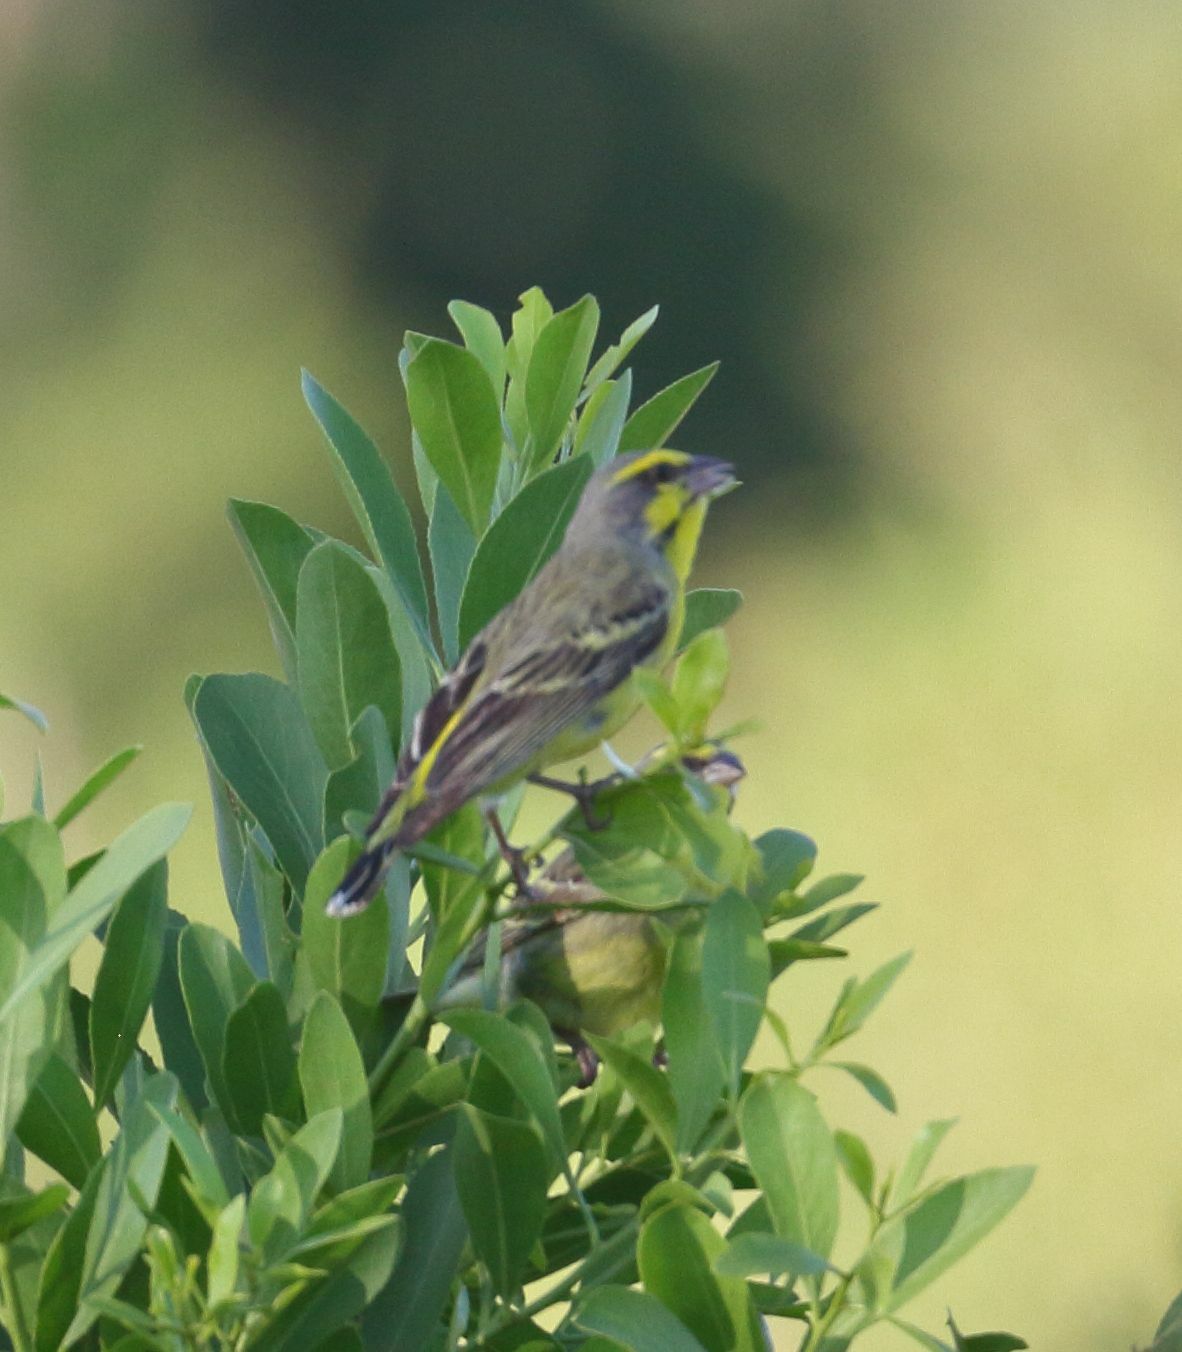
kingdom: Animalia
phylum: Chordata
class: Aves
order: Passeriformes
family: Fringillidae
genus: Crithagra
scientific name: Crithagra mozambica
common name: Yellow-fronted canary
